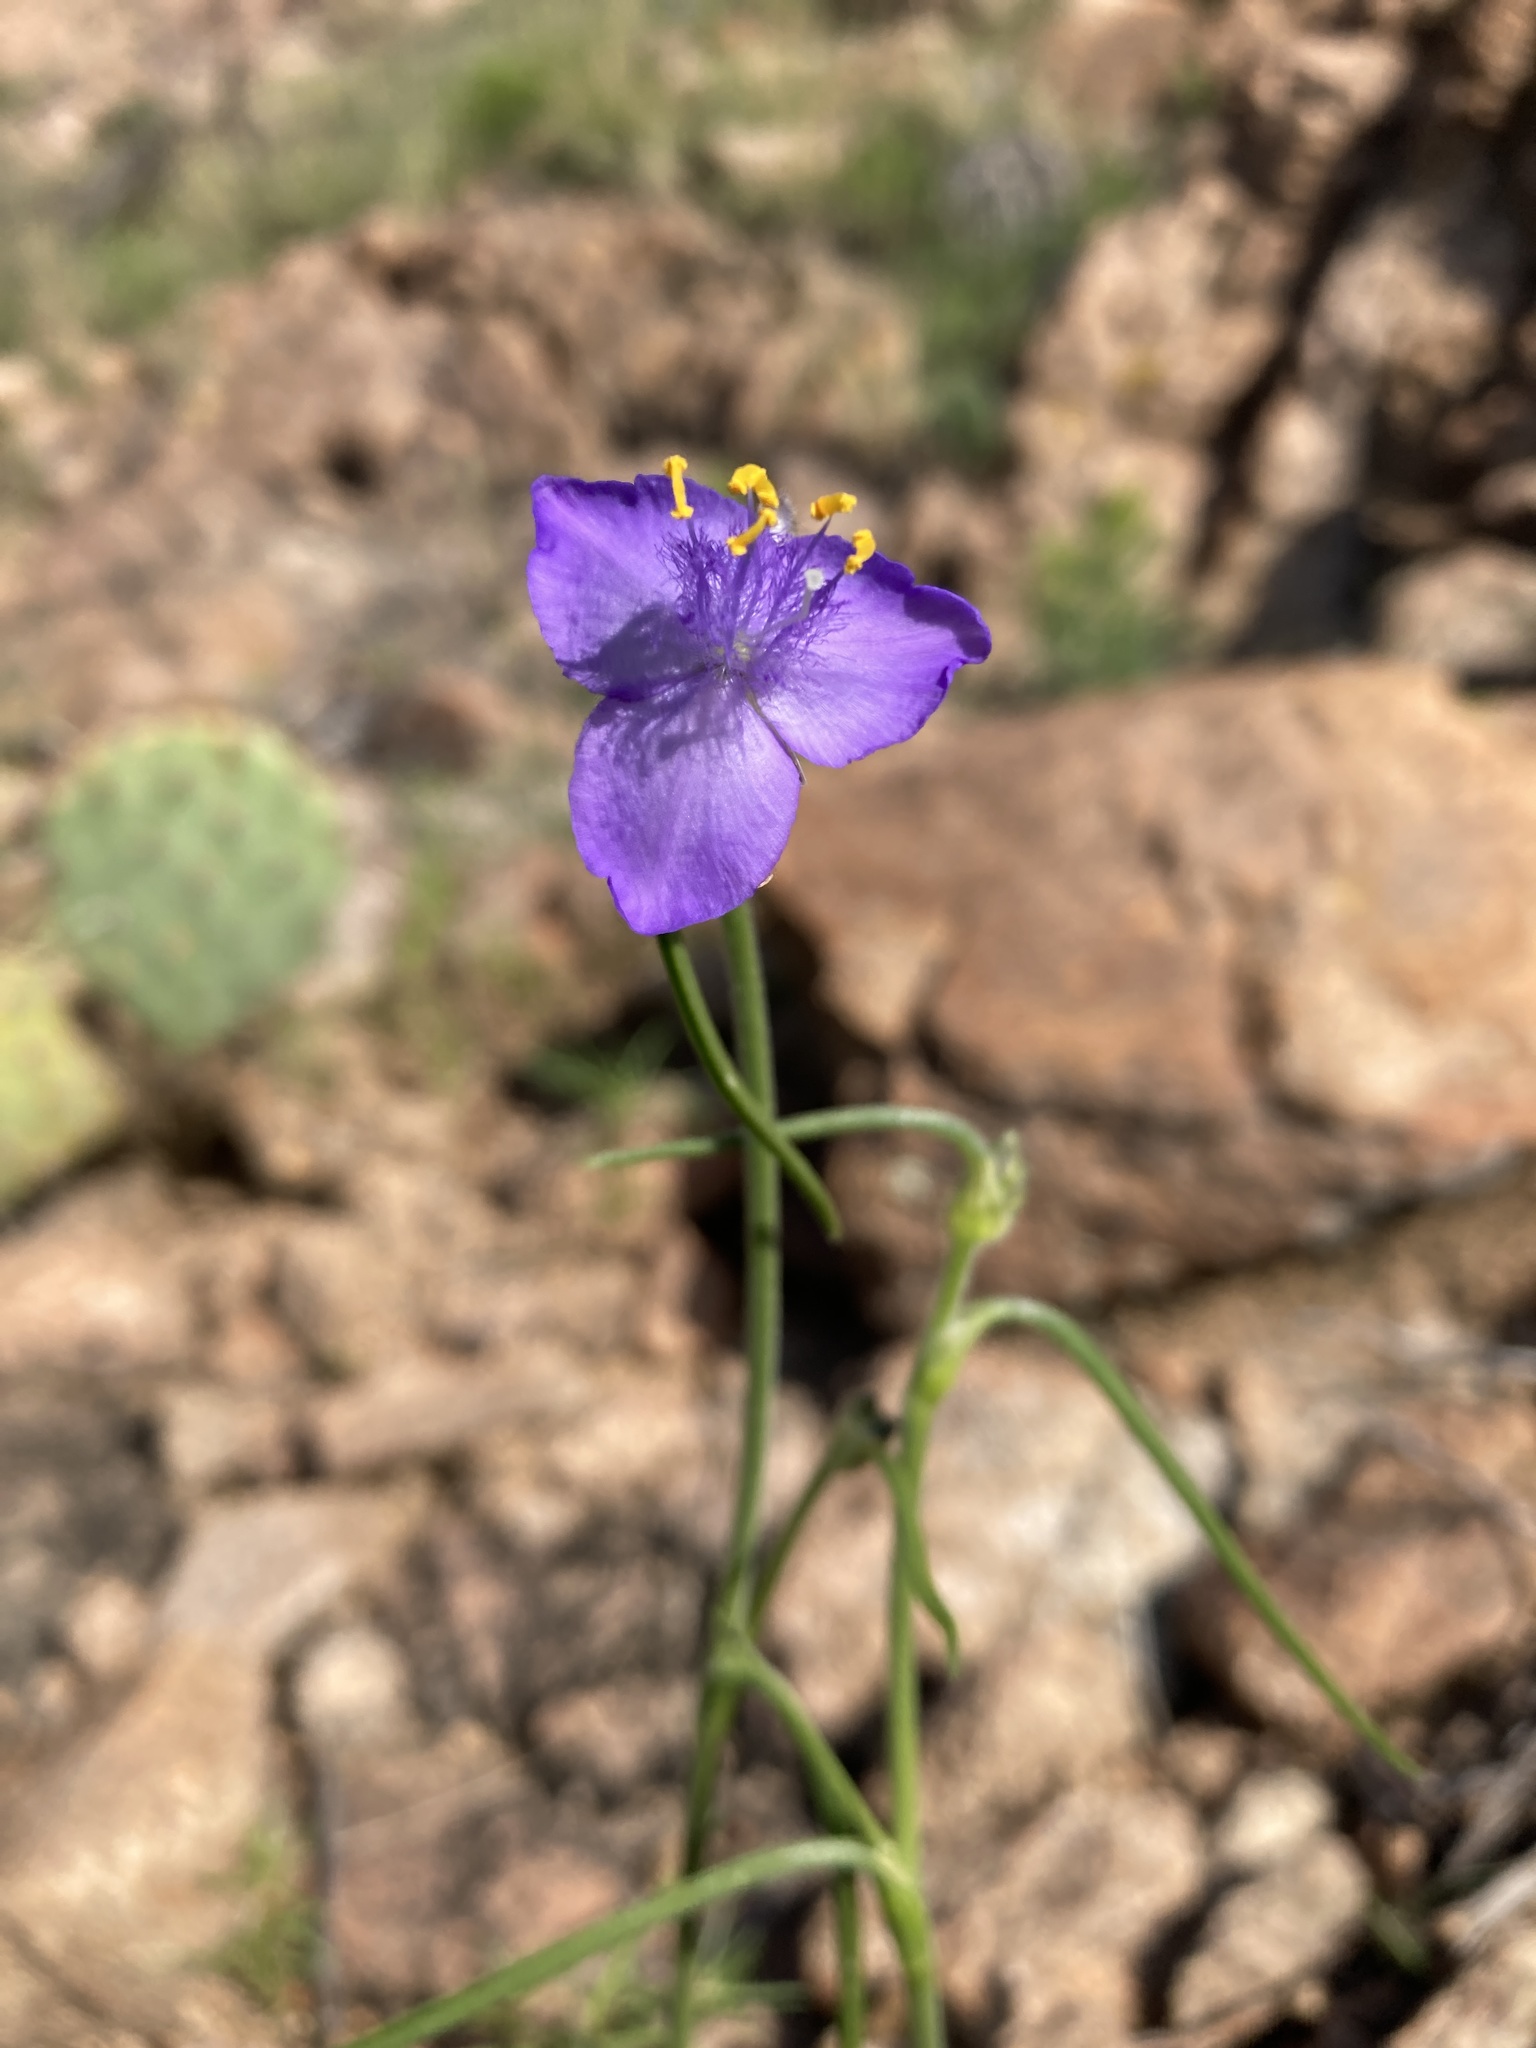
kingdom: Plantae
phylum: Tracheophyta
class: Liliopsida
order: Commelinales
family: Commelinaceae
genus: Tradescantia
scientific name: Tradescantia pinetorum
